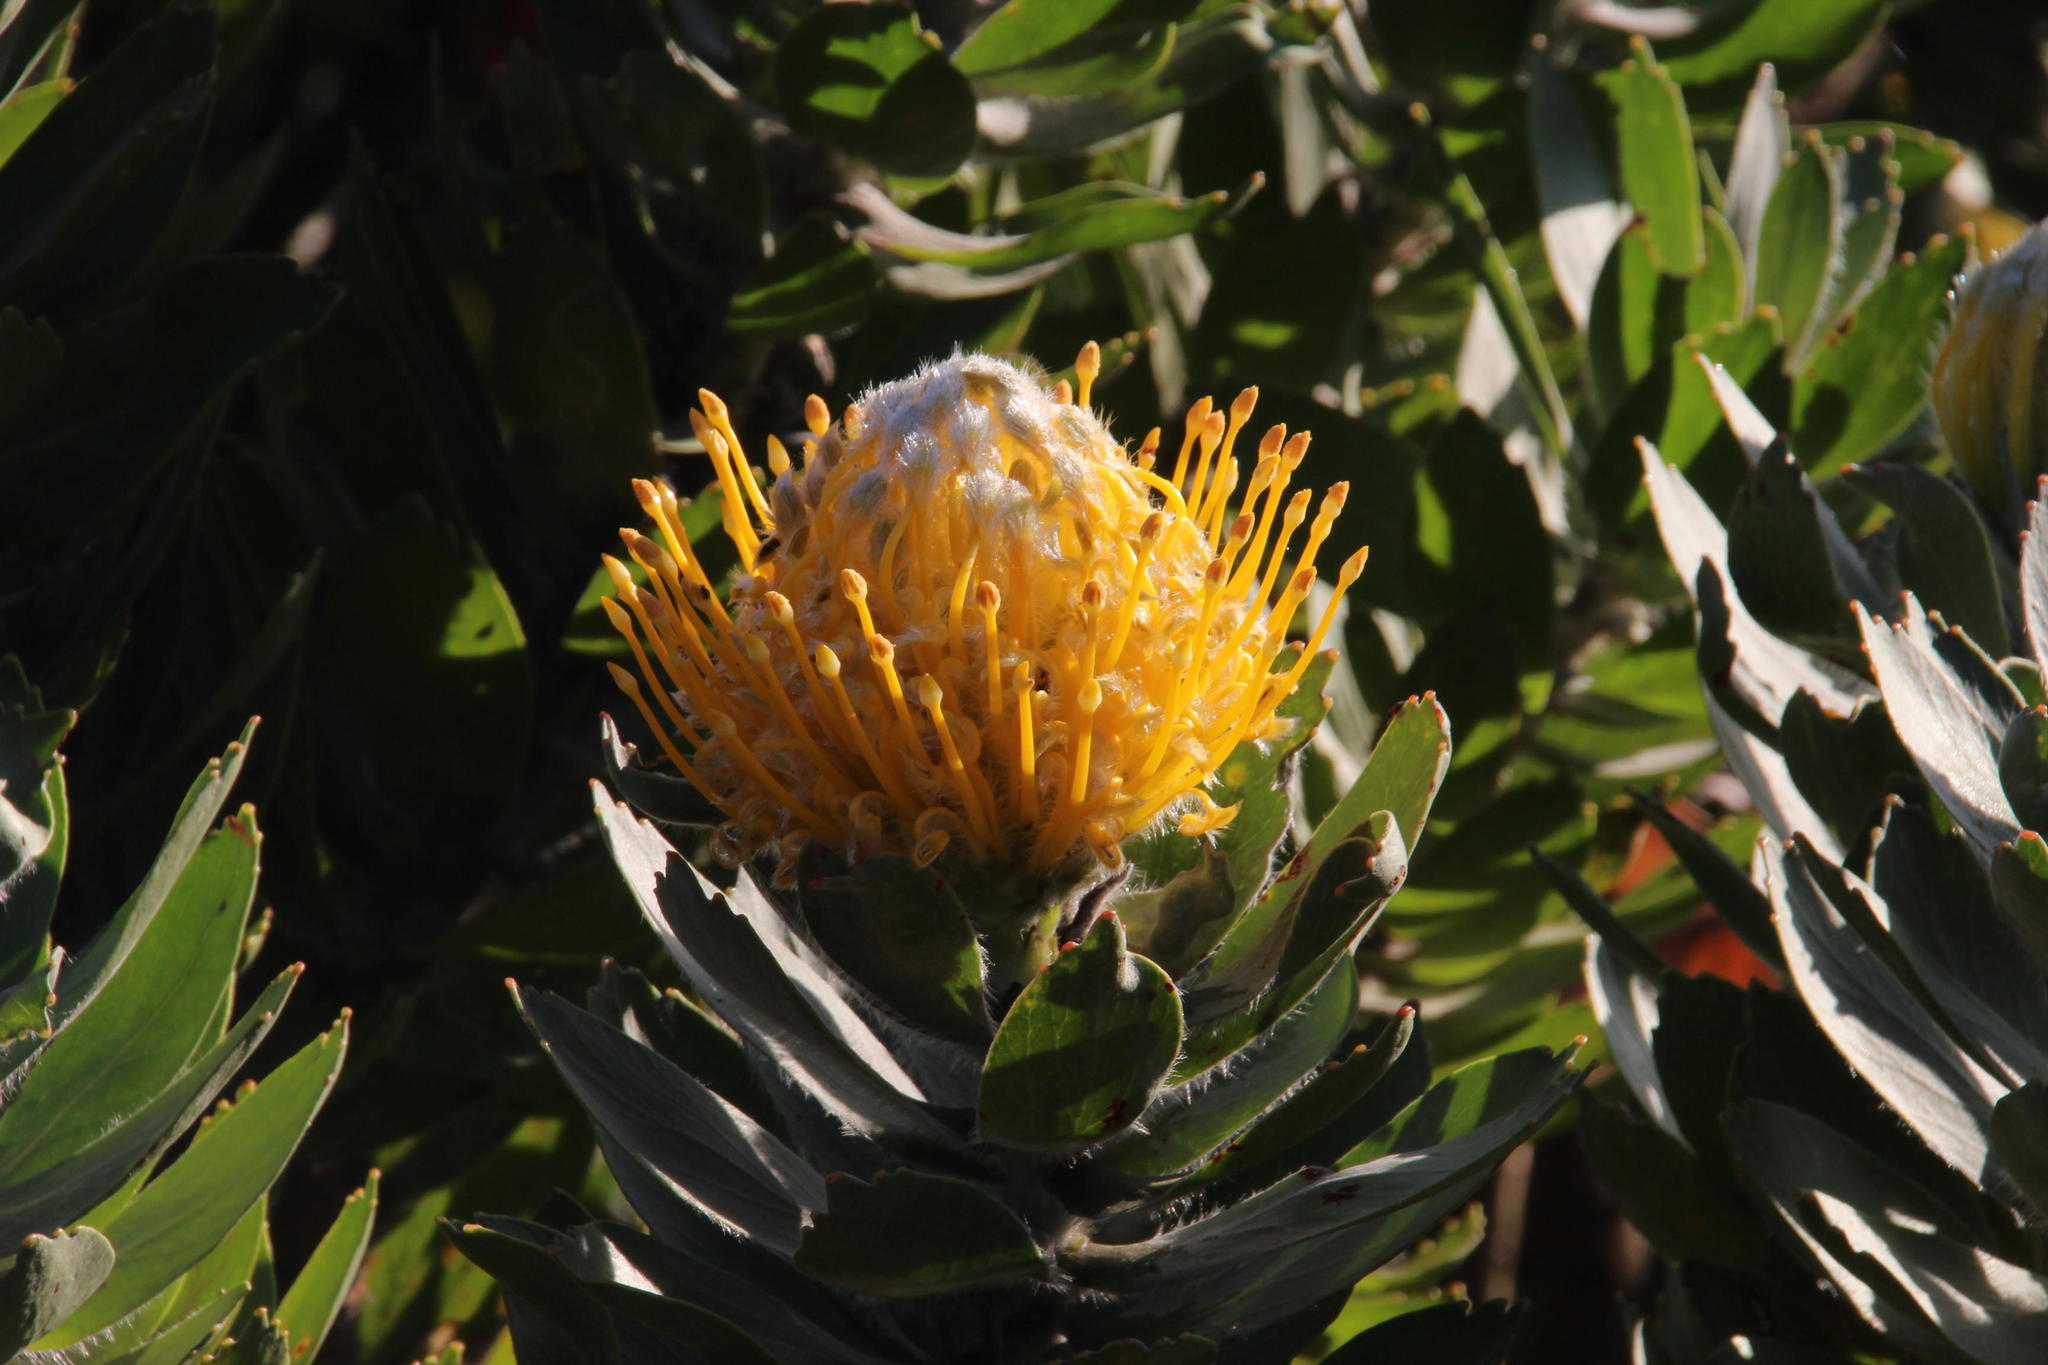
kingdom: Plantae
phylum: Tracheophyta
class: Magnoliopsida
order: Proteales
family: Proteaceae
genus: Leucospermum
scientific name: Leucospermum conocarpodendron
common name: Tree pincushion
